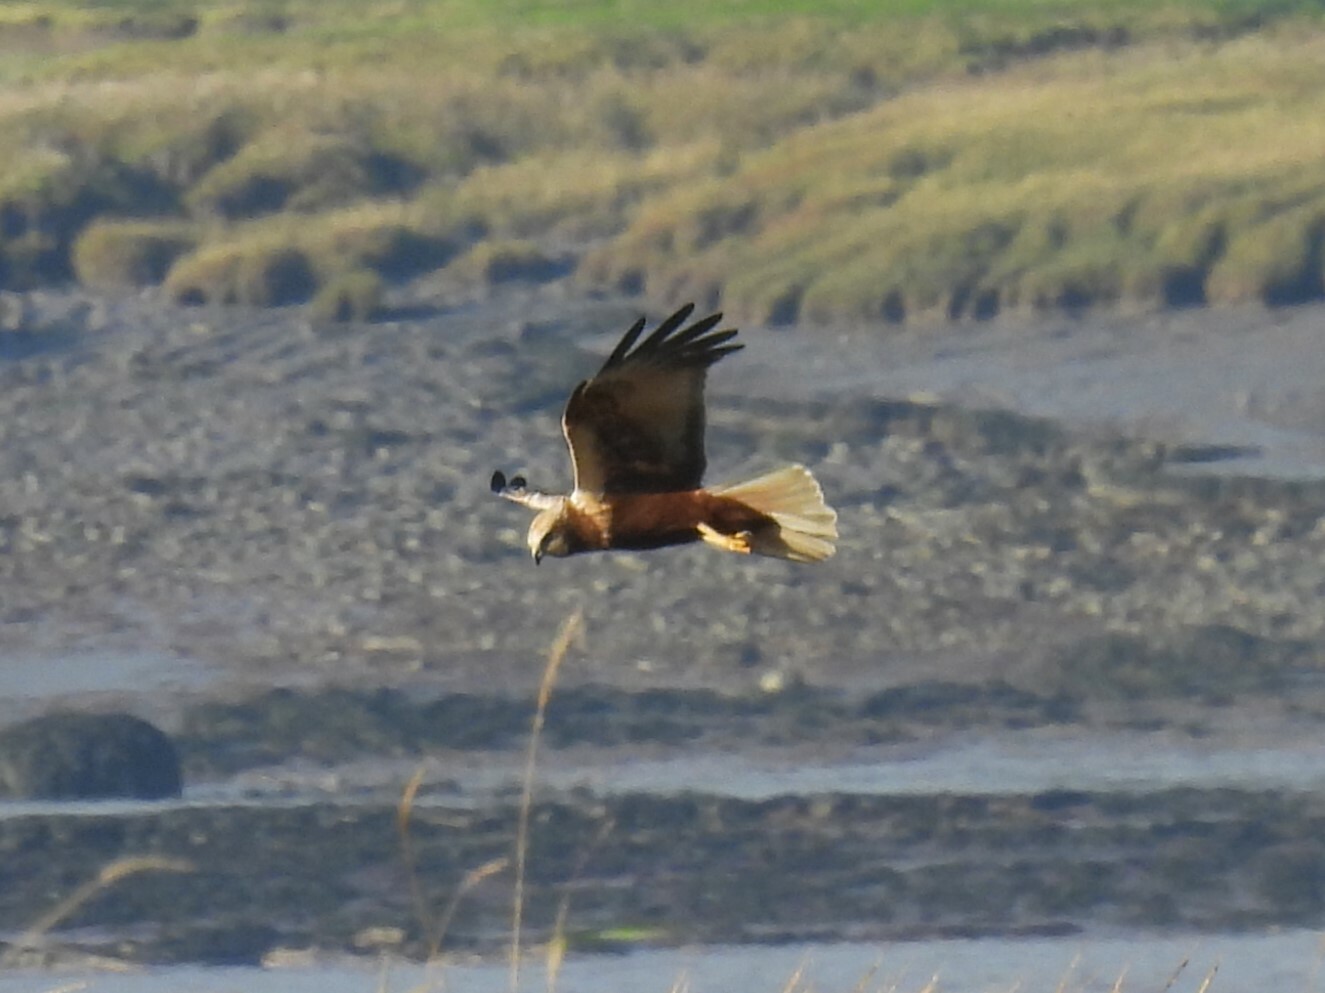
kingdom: Animalia
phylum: Chordata
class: Aves
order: Accipitriformes
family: Accipitridae
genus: Circus
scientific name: Circus aeruginosus
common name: Western marsh harrier
